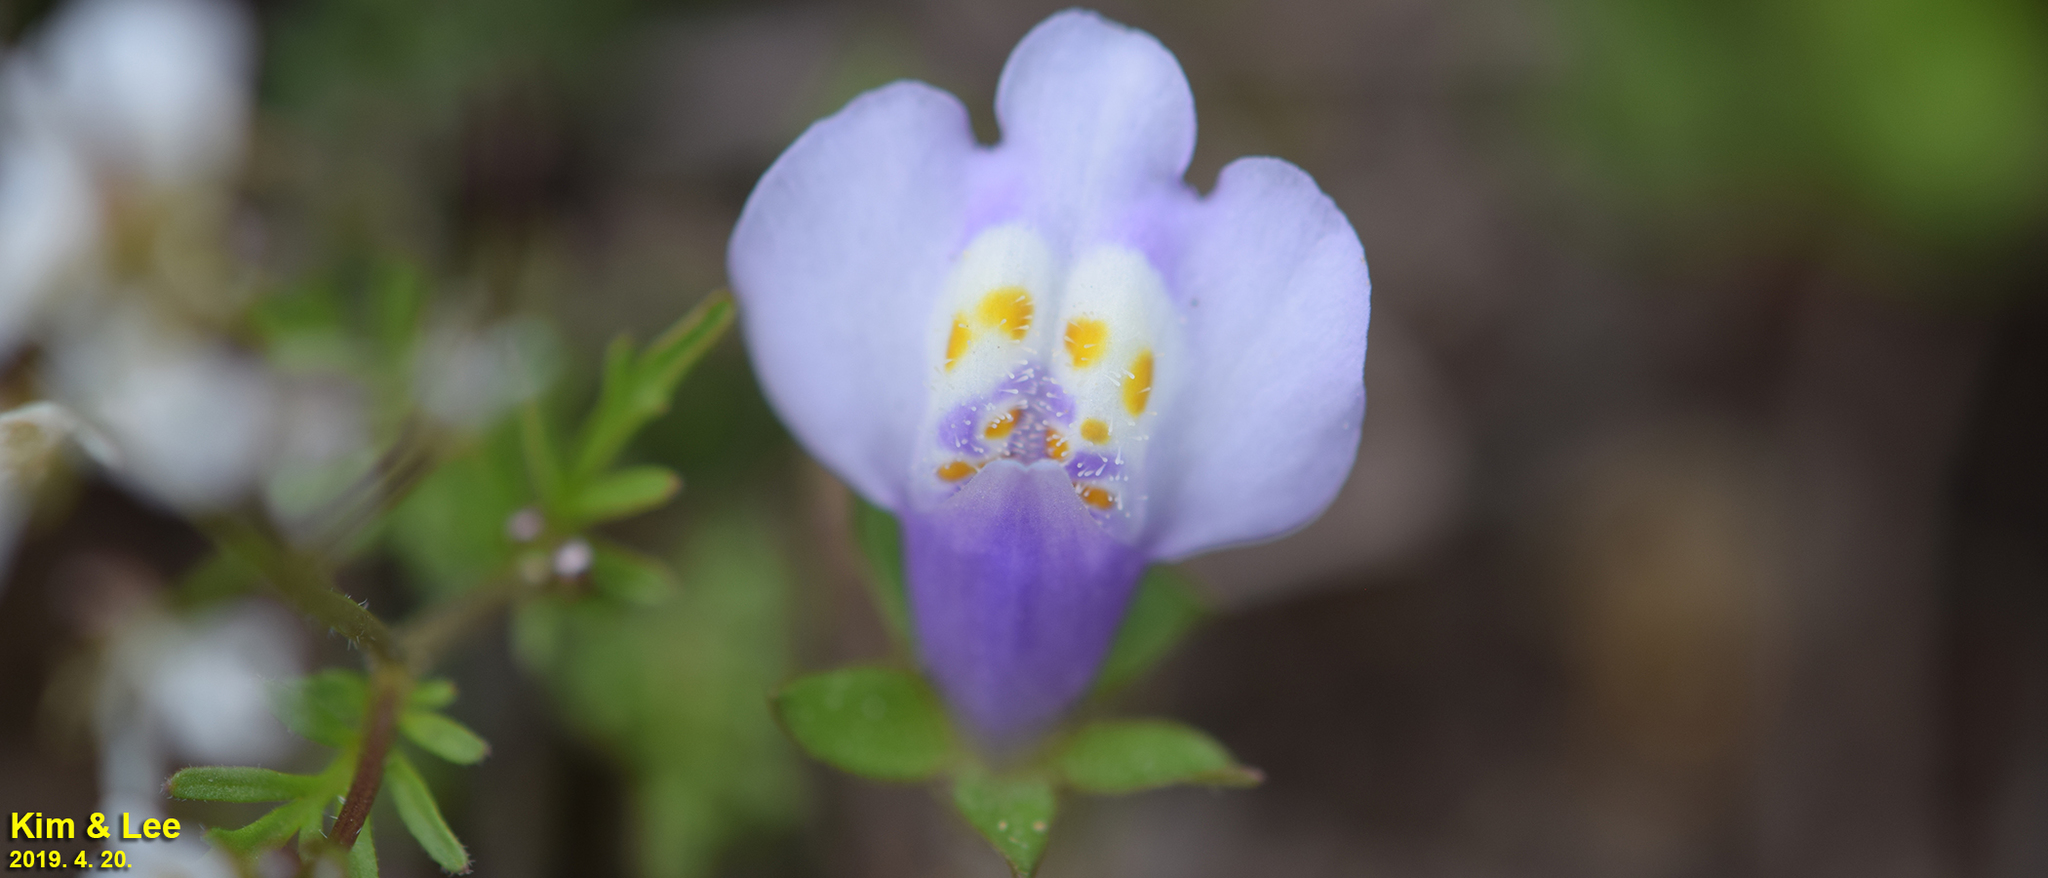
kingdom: Plantae
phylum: Tracheophyta
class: Magnoliopsida
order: Lamiales
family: Mazaceae
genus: Mazus
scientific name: Mazus pumilus
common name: Japanese mazus
